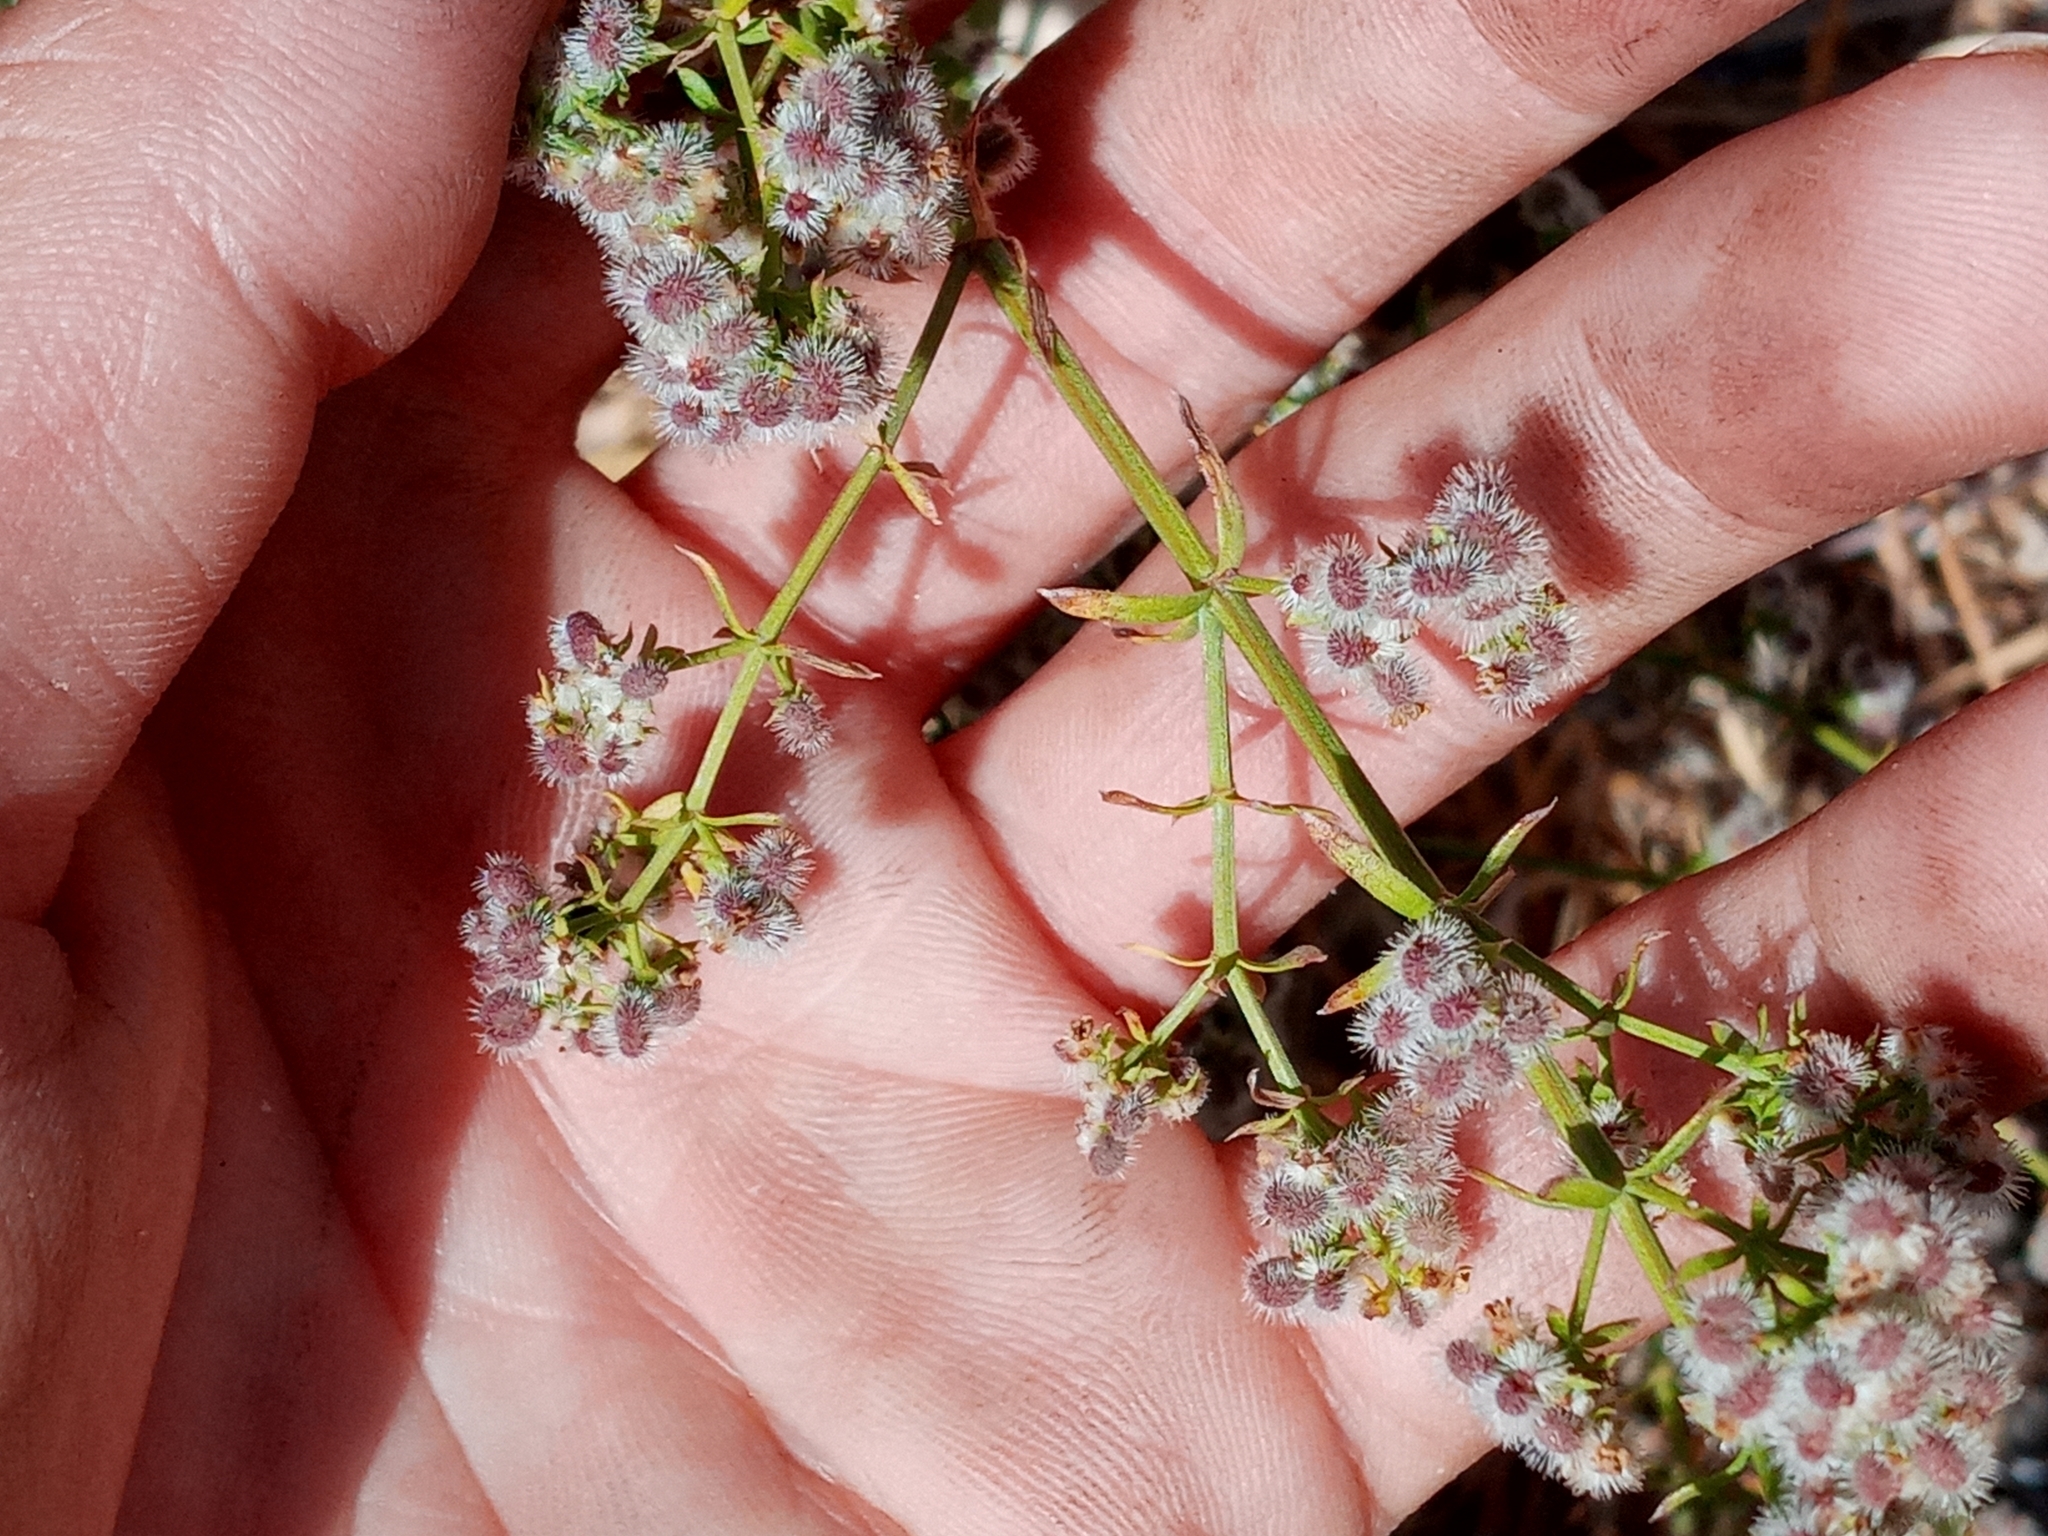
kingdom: Plantae
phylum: Tracheophyta
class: Magnoliopsida
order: Gentianales
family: Rubiaceae
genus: Galium
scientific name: Galium angustifolium
